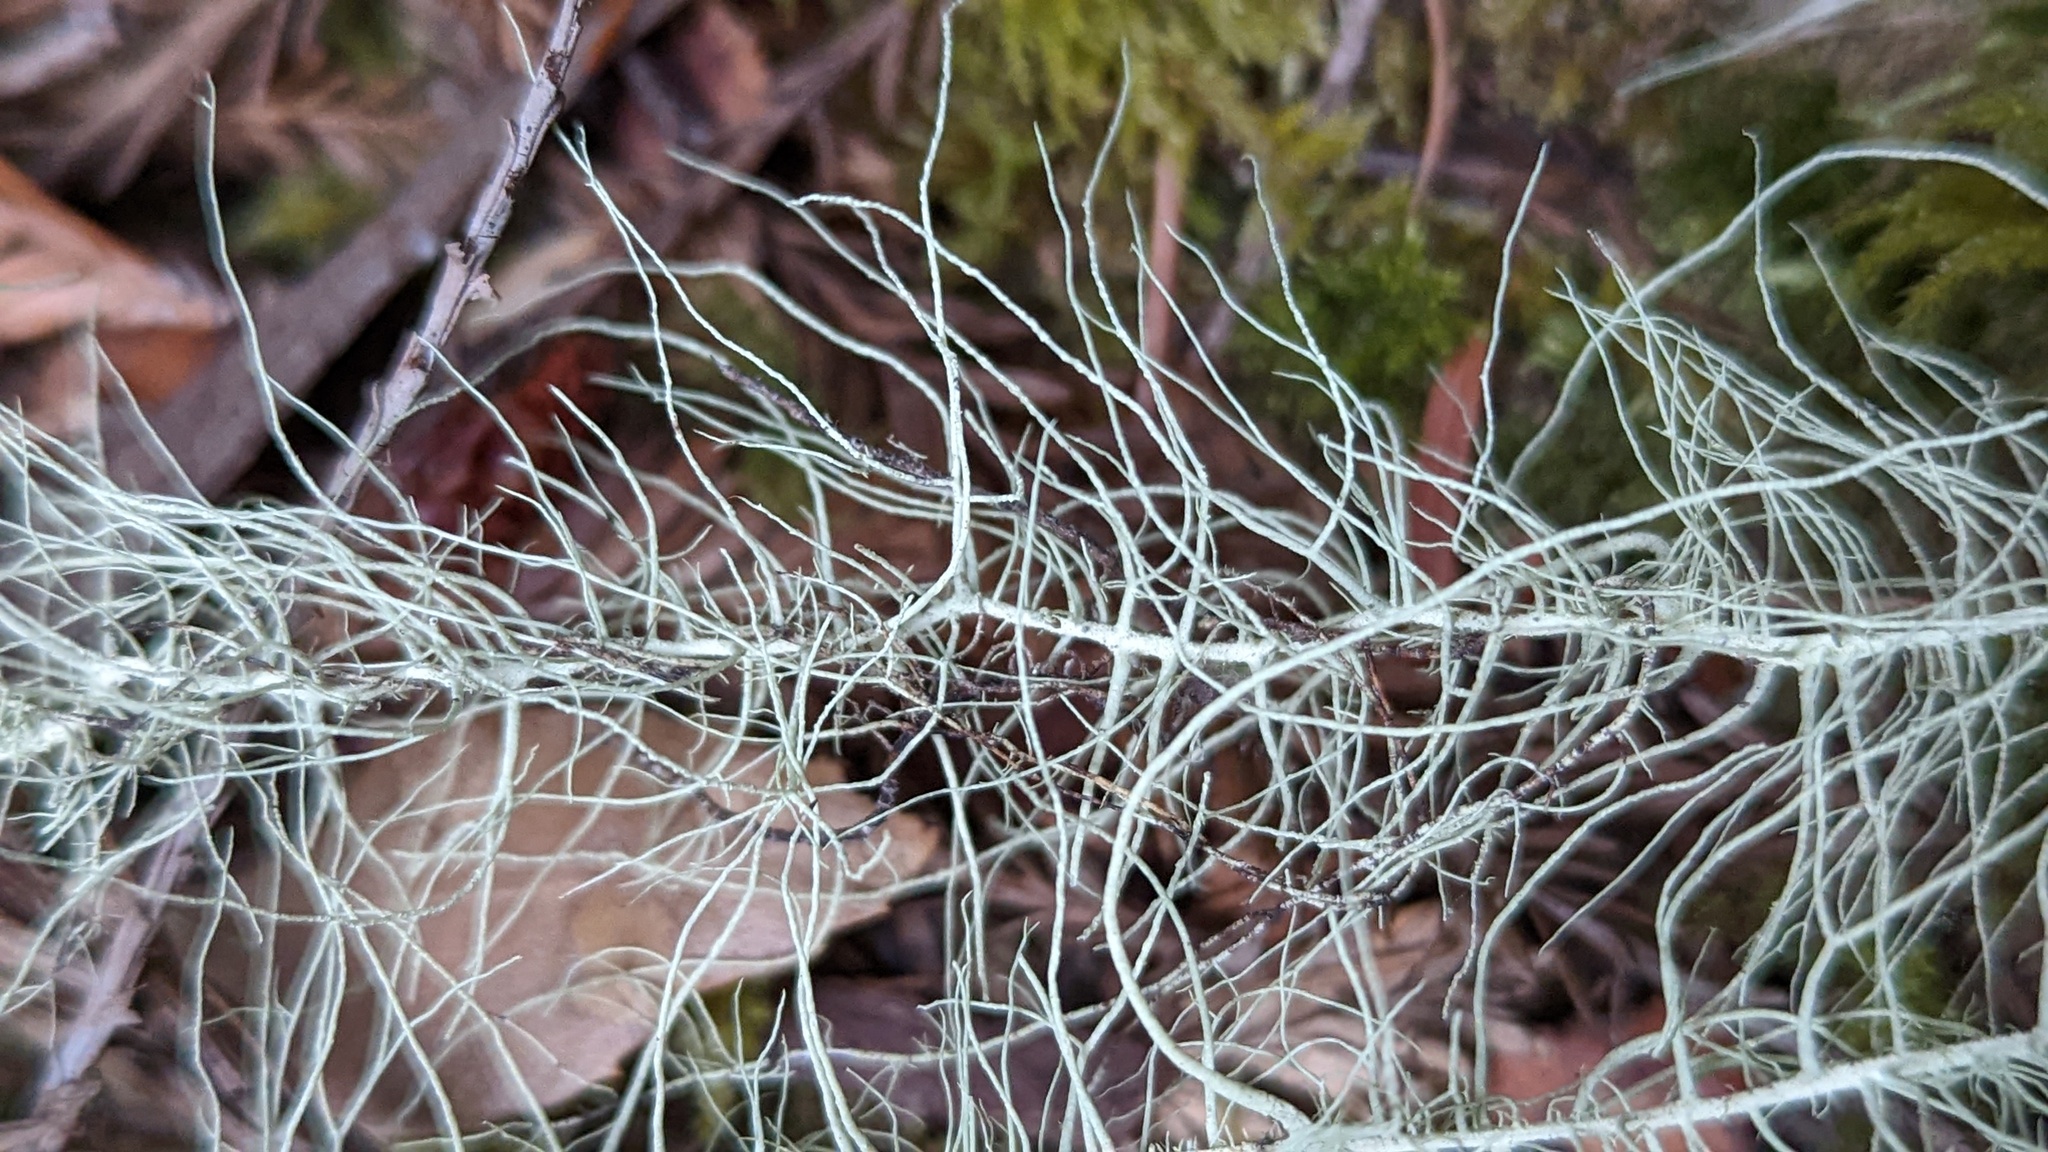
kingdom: Fungi
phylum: Ascomycota
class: Lecanoromycetes
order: Lecanorales
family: Parmeliaceae
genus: Dolichousnea
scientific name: Dolichousnea longissima
